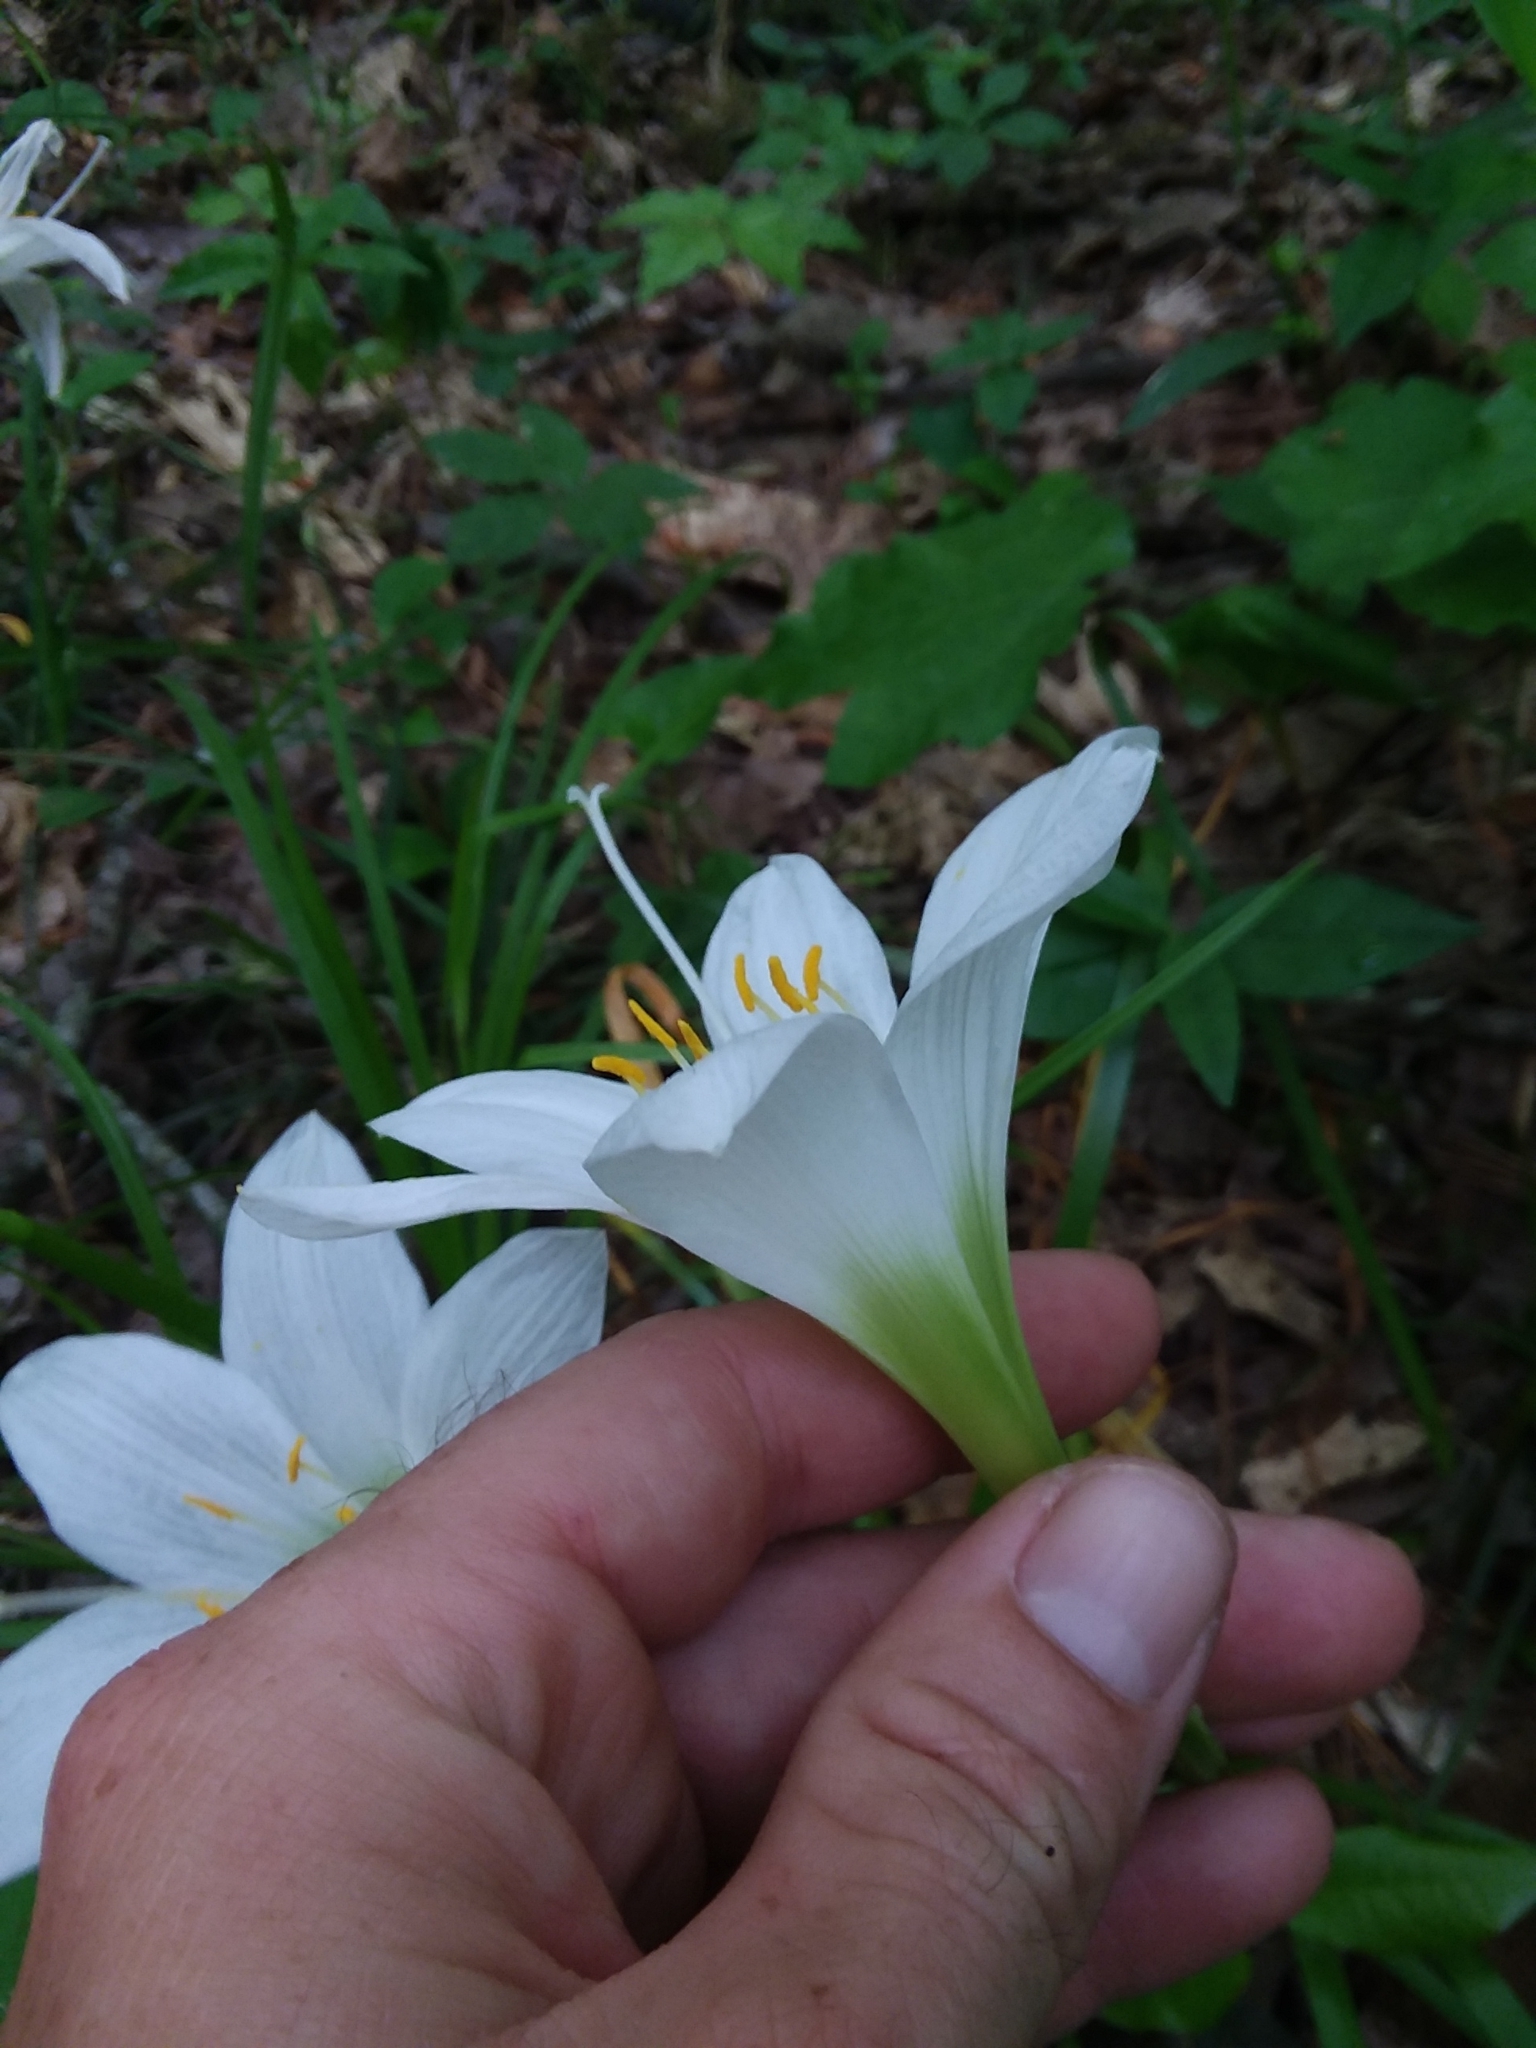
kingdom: Plantae
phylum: Tracheophyta
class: Liliopsida
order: Asparagales
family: Amaryllidaceae
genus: Zephyranthes
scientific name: Zephyranthes atamasco
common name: Atamasco lily
